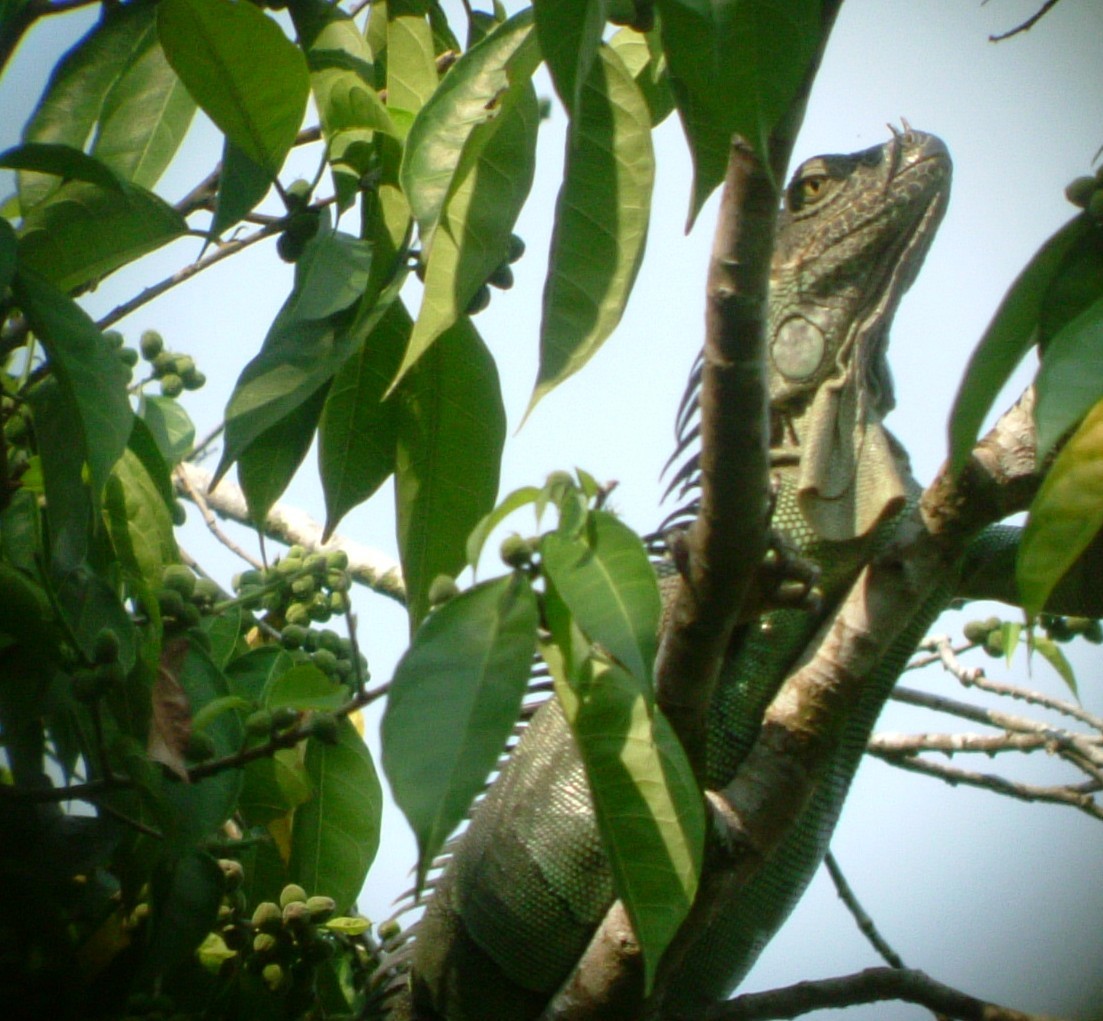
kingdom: Animalia
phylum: Chordata
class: Squamata
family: Iguanidae
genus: Iguana
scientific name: Iguana iguana
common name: Green iguana
